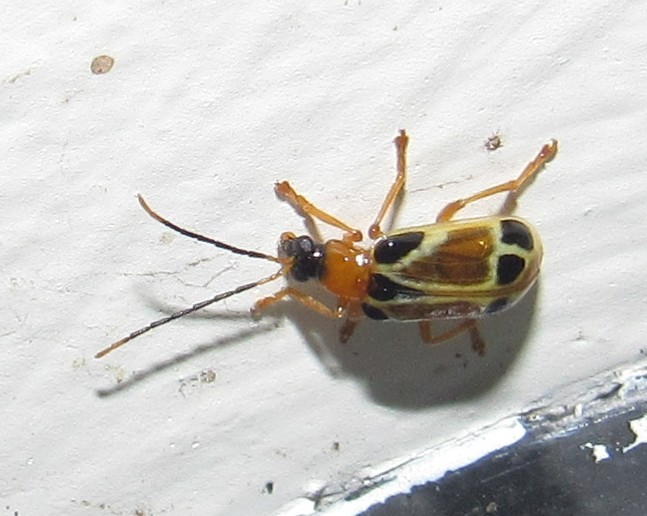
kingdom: Animalia
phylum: Arthropoda
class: Insecta
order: Coleoptera
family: Chrysomelidae
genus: Diabrotica
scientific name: Diabrotica
